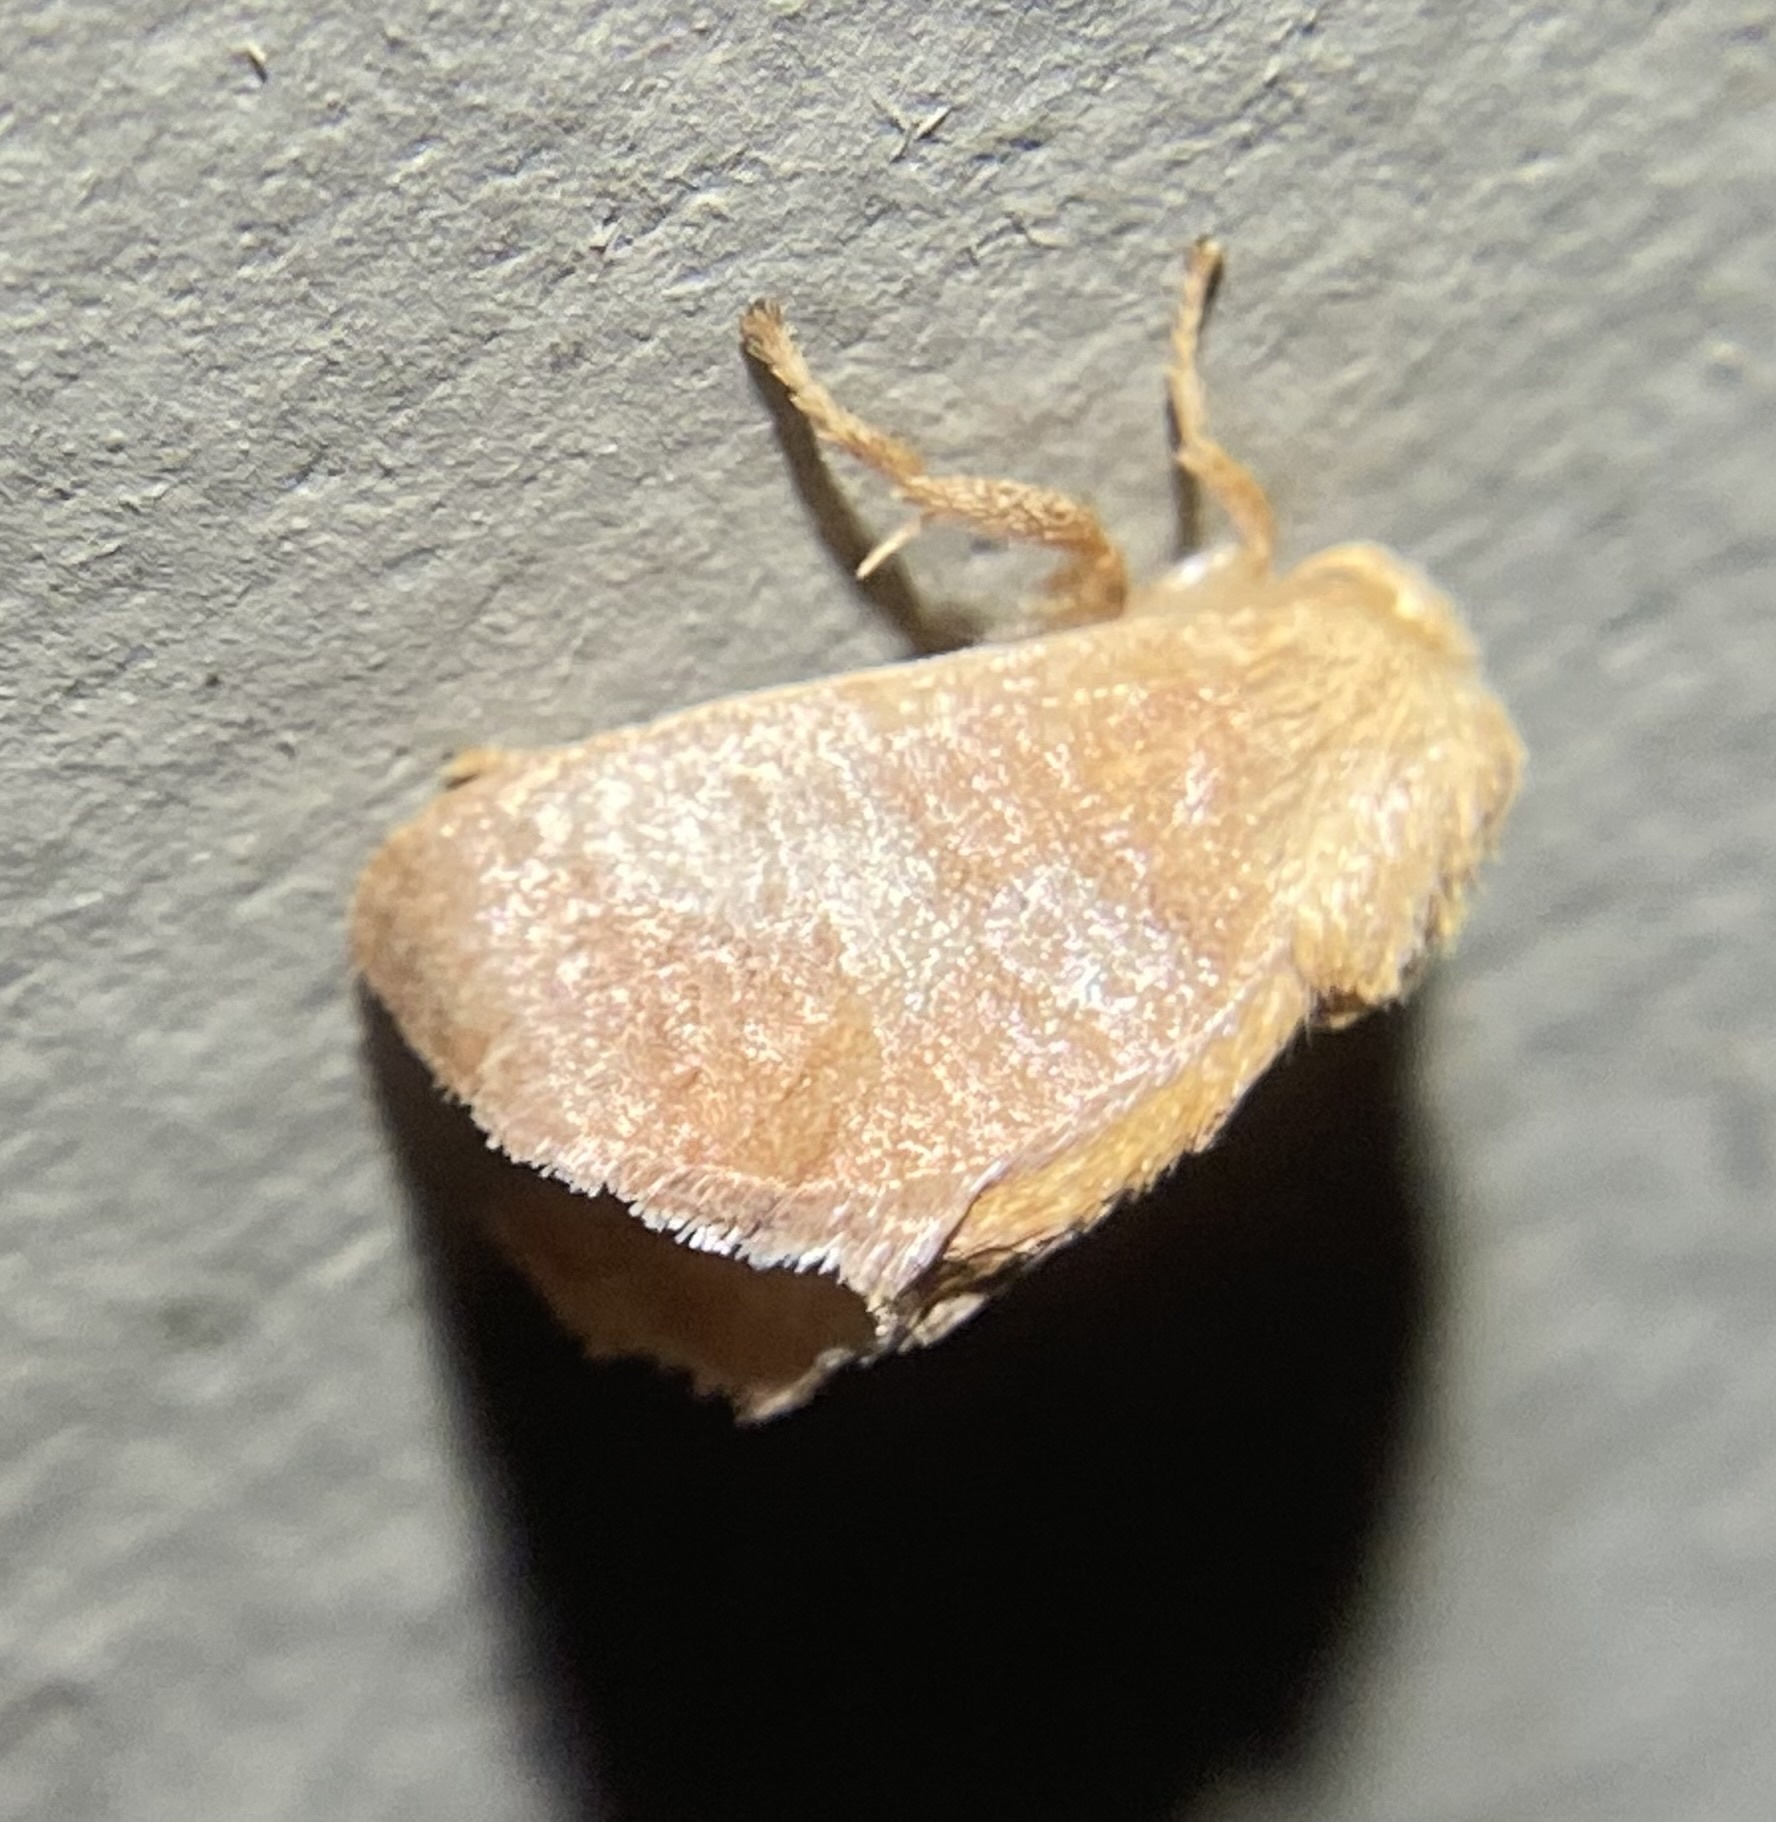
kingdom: Animalia
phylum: Arthropoda
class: Insecta
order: Lepidoptera
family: Limacodidae
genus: Isa
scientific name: Isa textula
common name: Crowned slug moth
